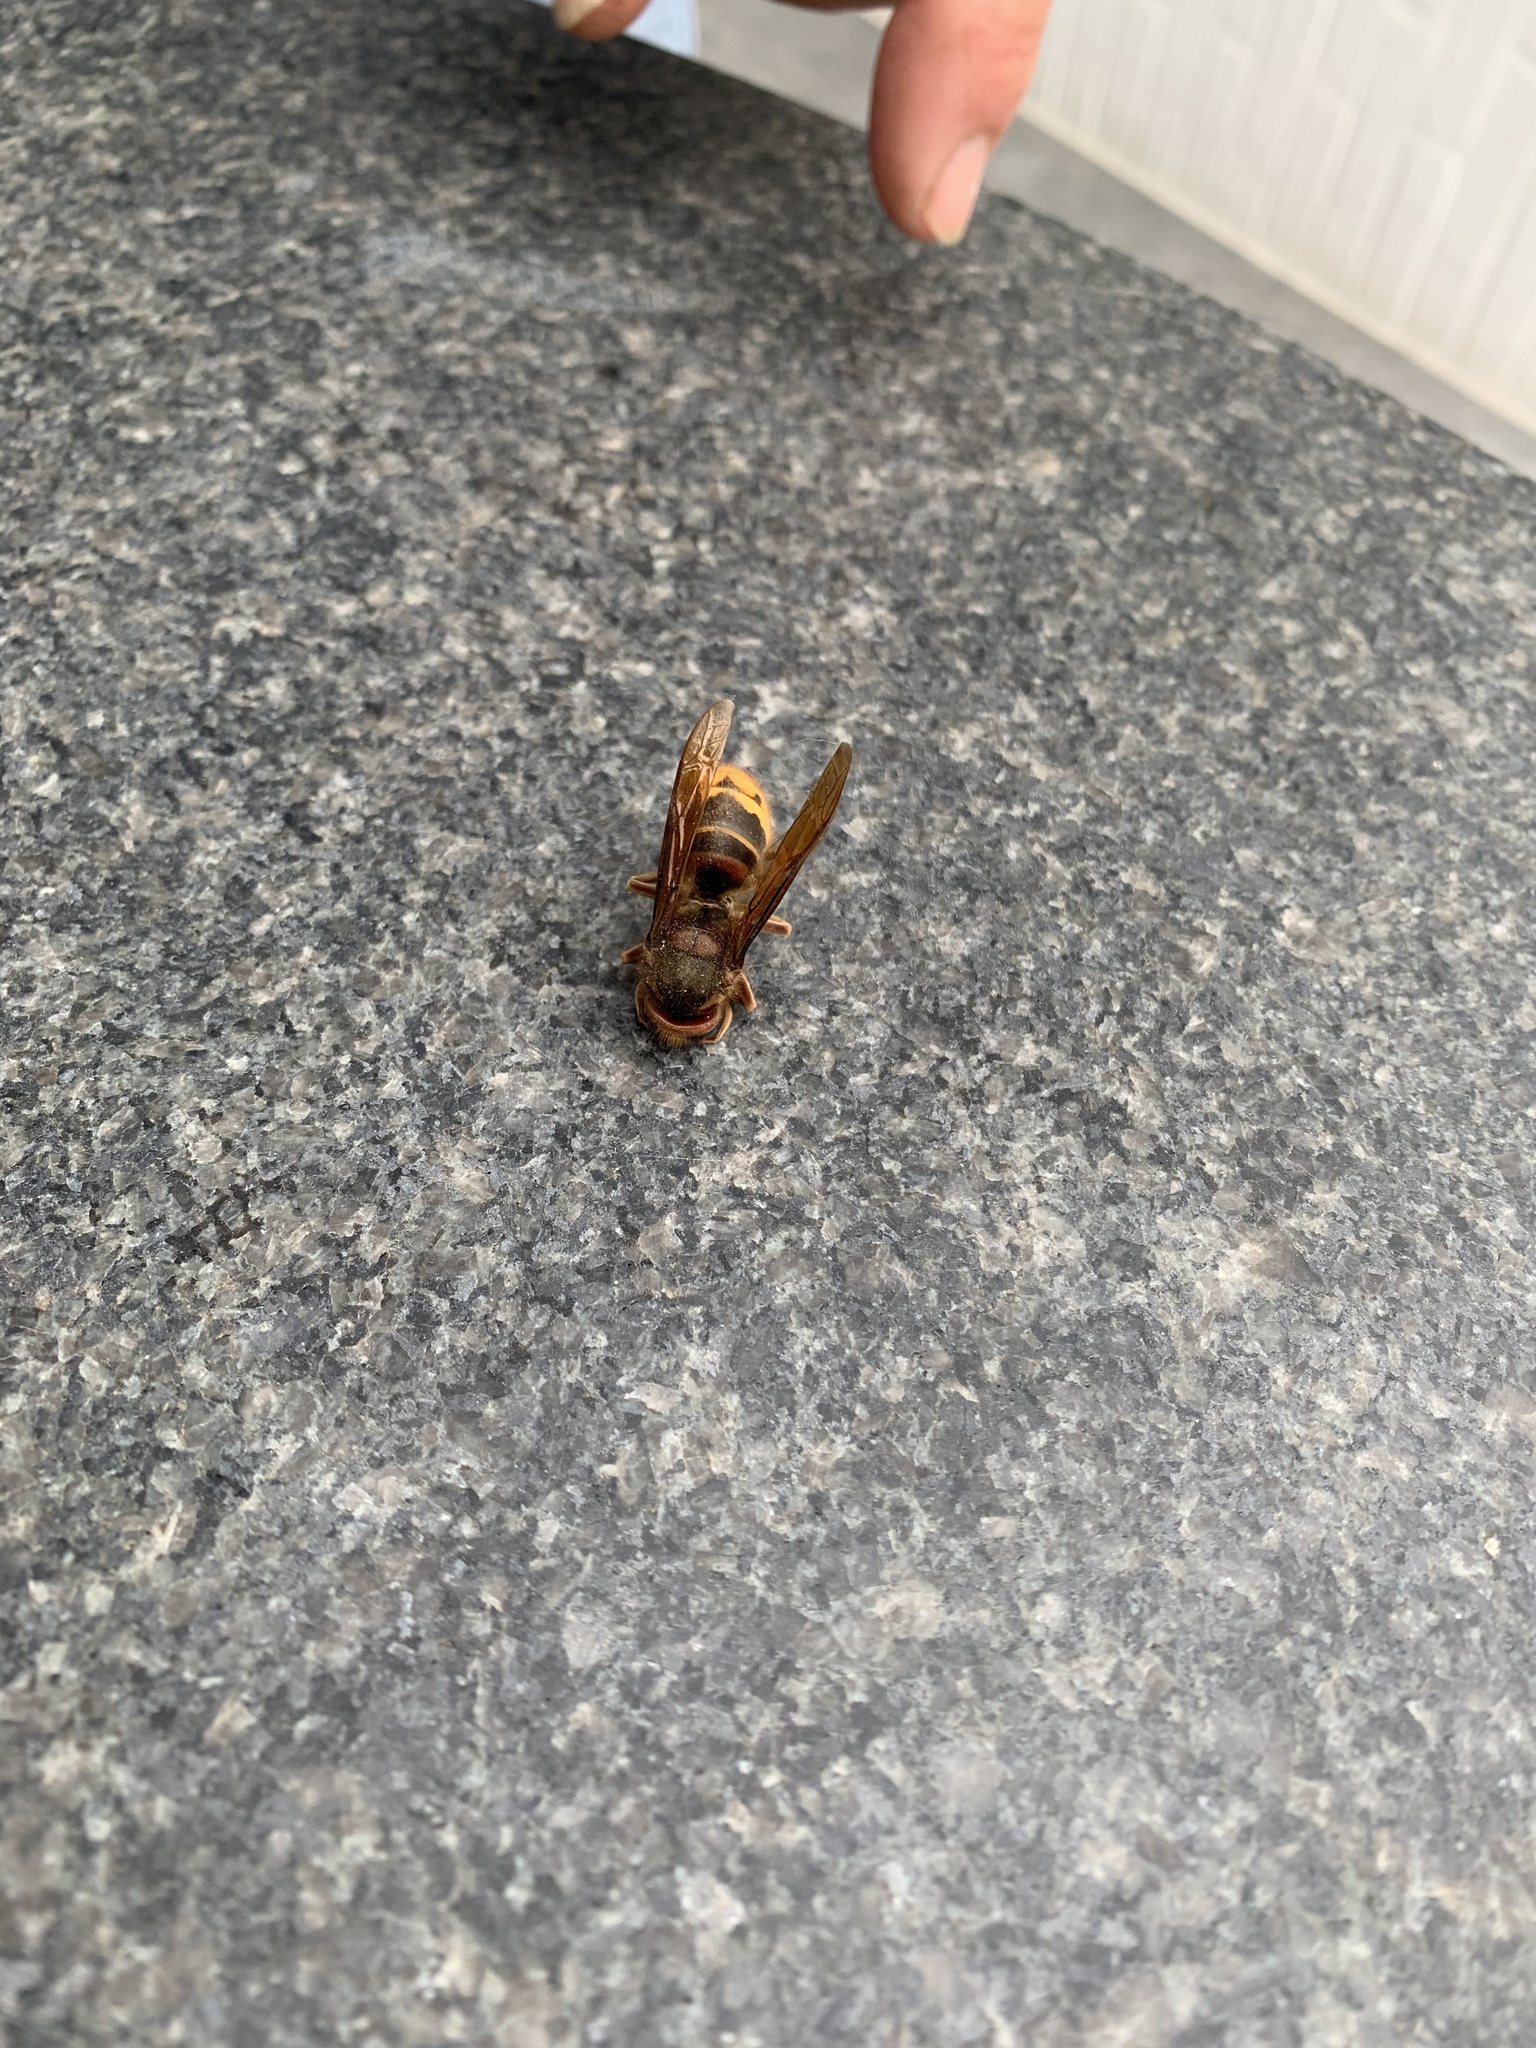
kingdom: Animalia
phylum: Arthropoda
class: Insecta
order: Hymenoptera
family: Vespidae
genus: Vespa
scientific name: Vespa crabro
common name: Hornet
